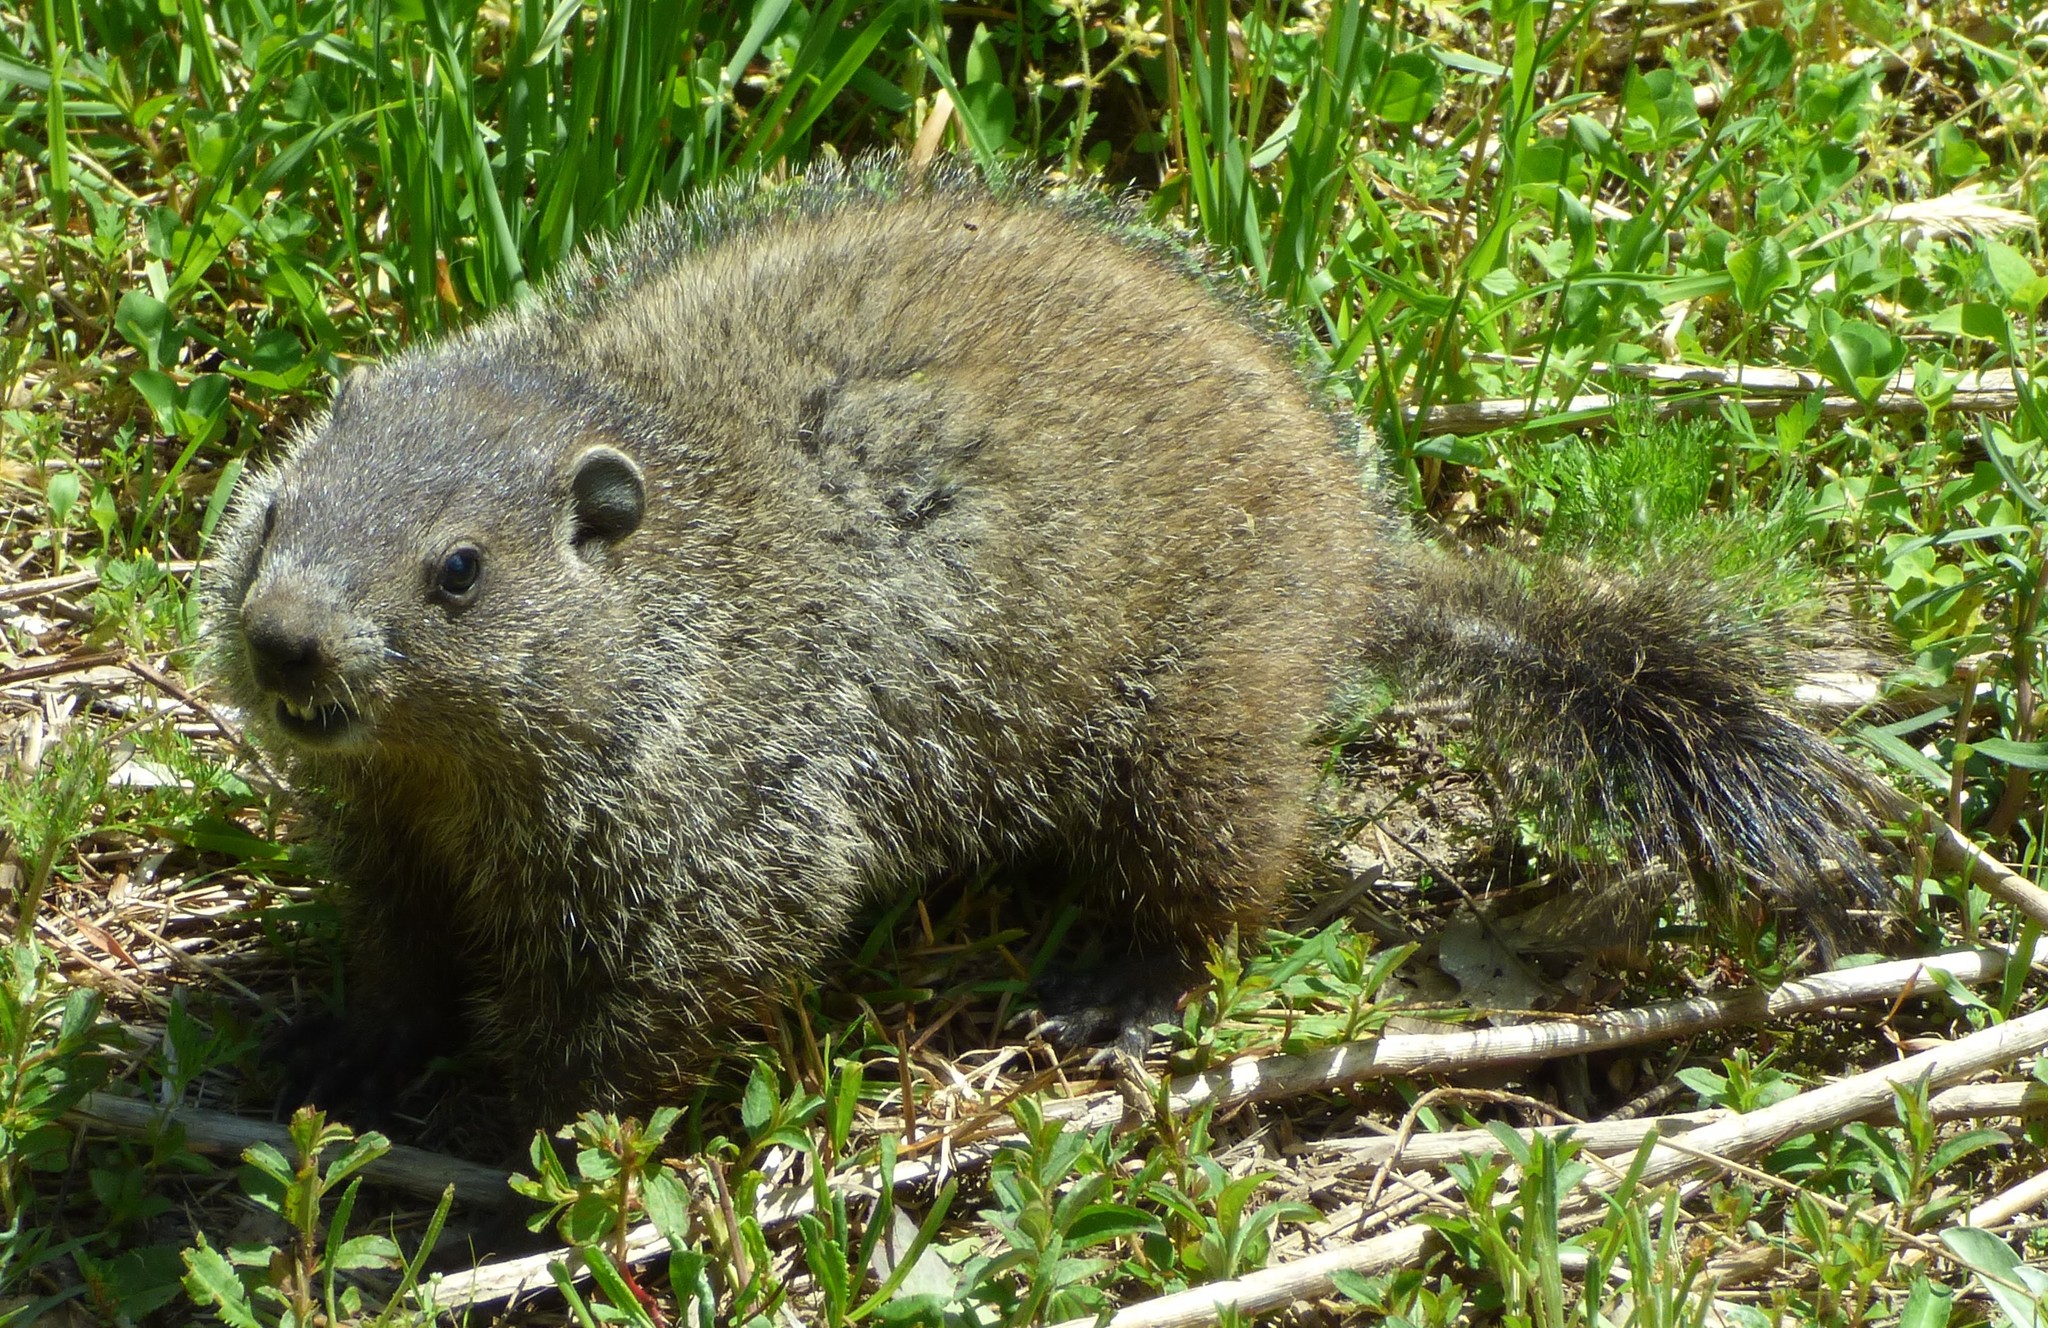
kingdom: Animalia
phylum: Chordata
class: Mammalia
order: Rodentia
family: Sciuridae
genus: Marmota
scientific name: Marmota monax
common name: Groundhog
